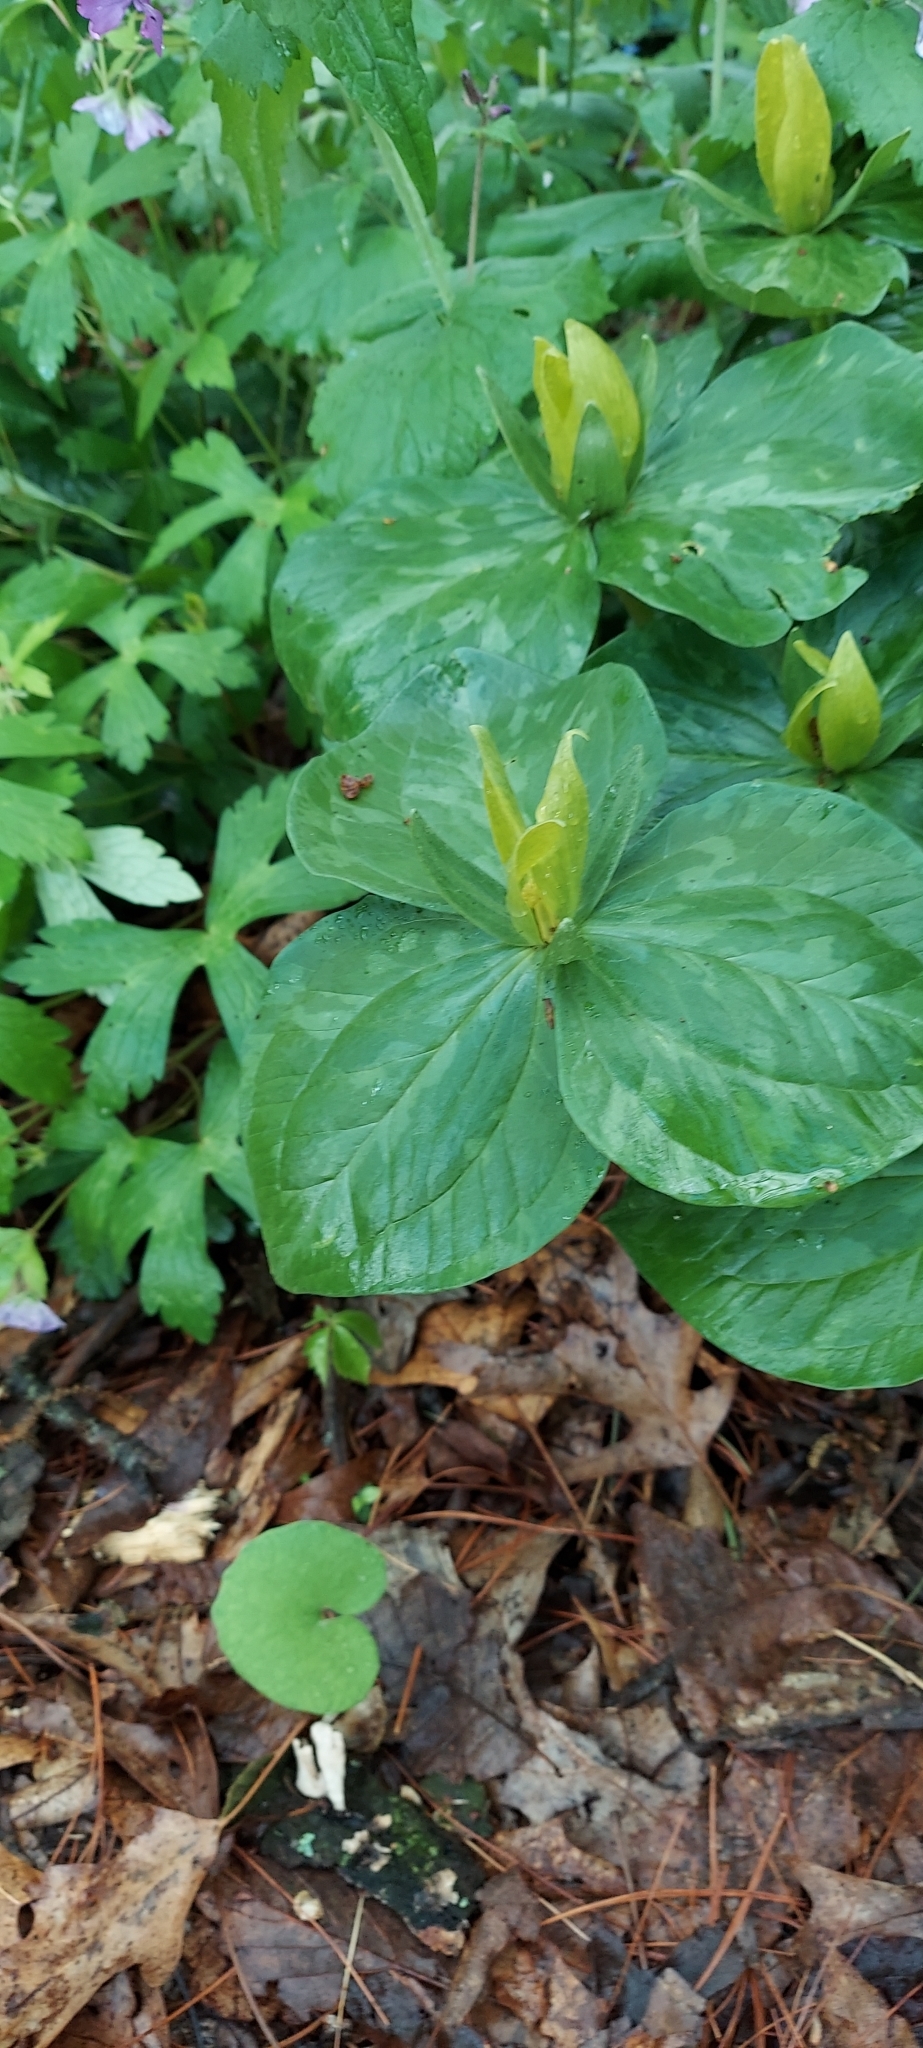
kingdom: Plantae
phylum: Tracheophyta
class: Liliopsida
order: Liliales
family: Melanthiaceae
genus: Trillium
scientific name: Trillium luteum
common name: Wax trillium
